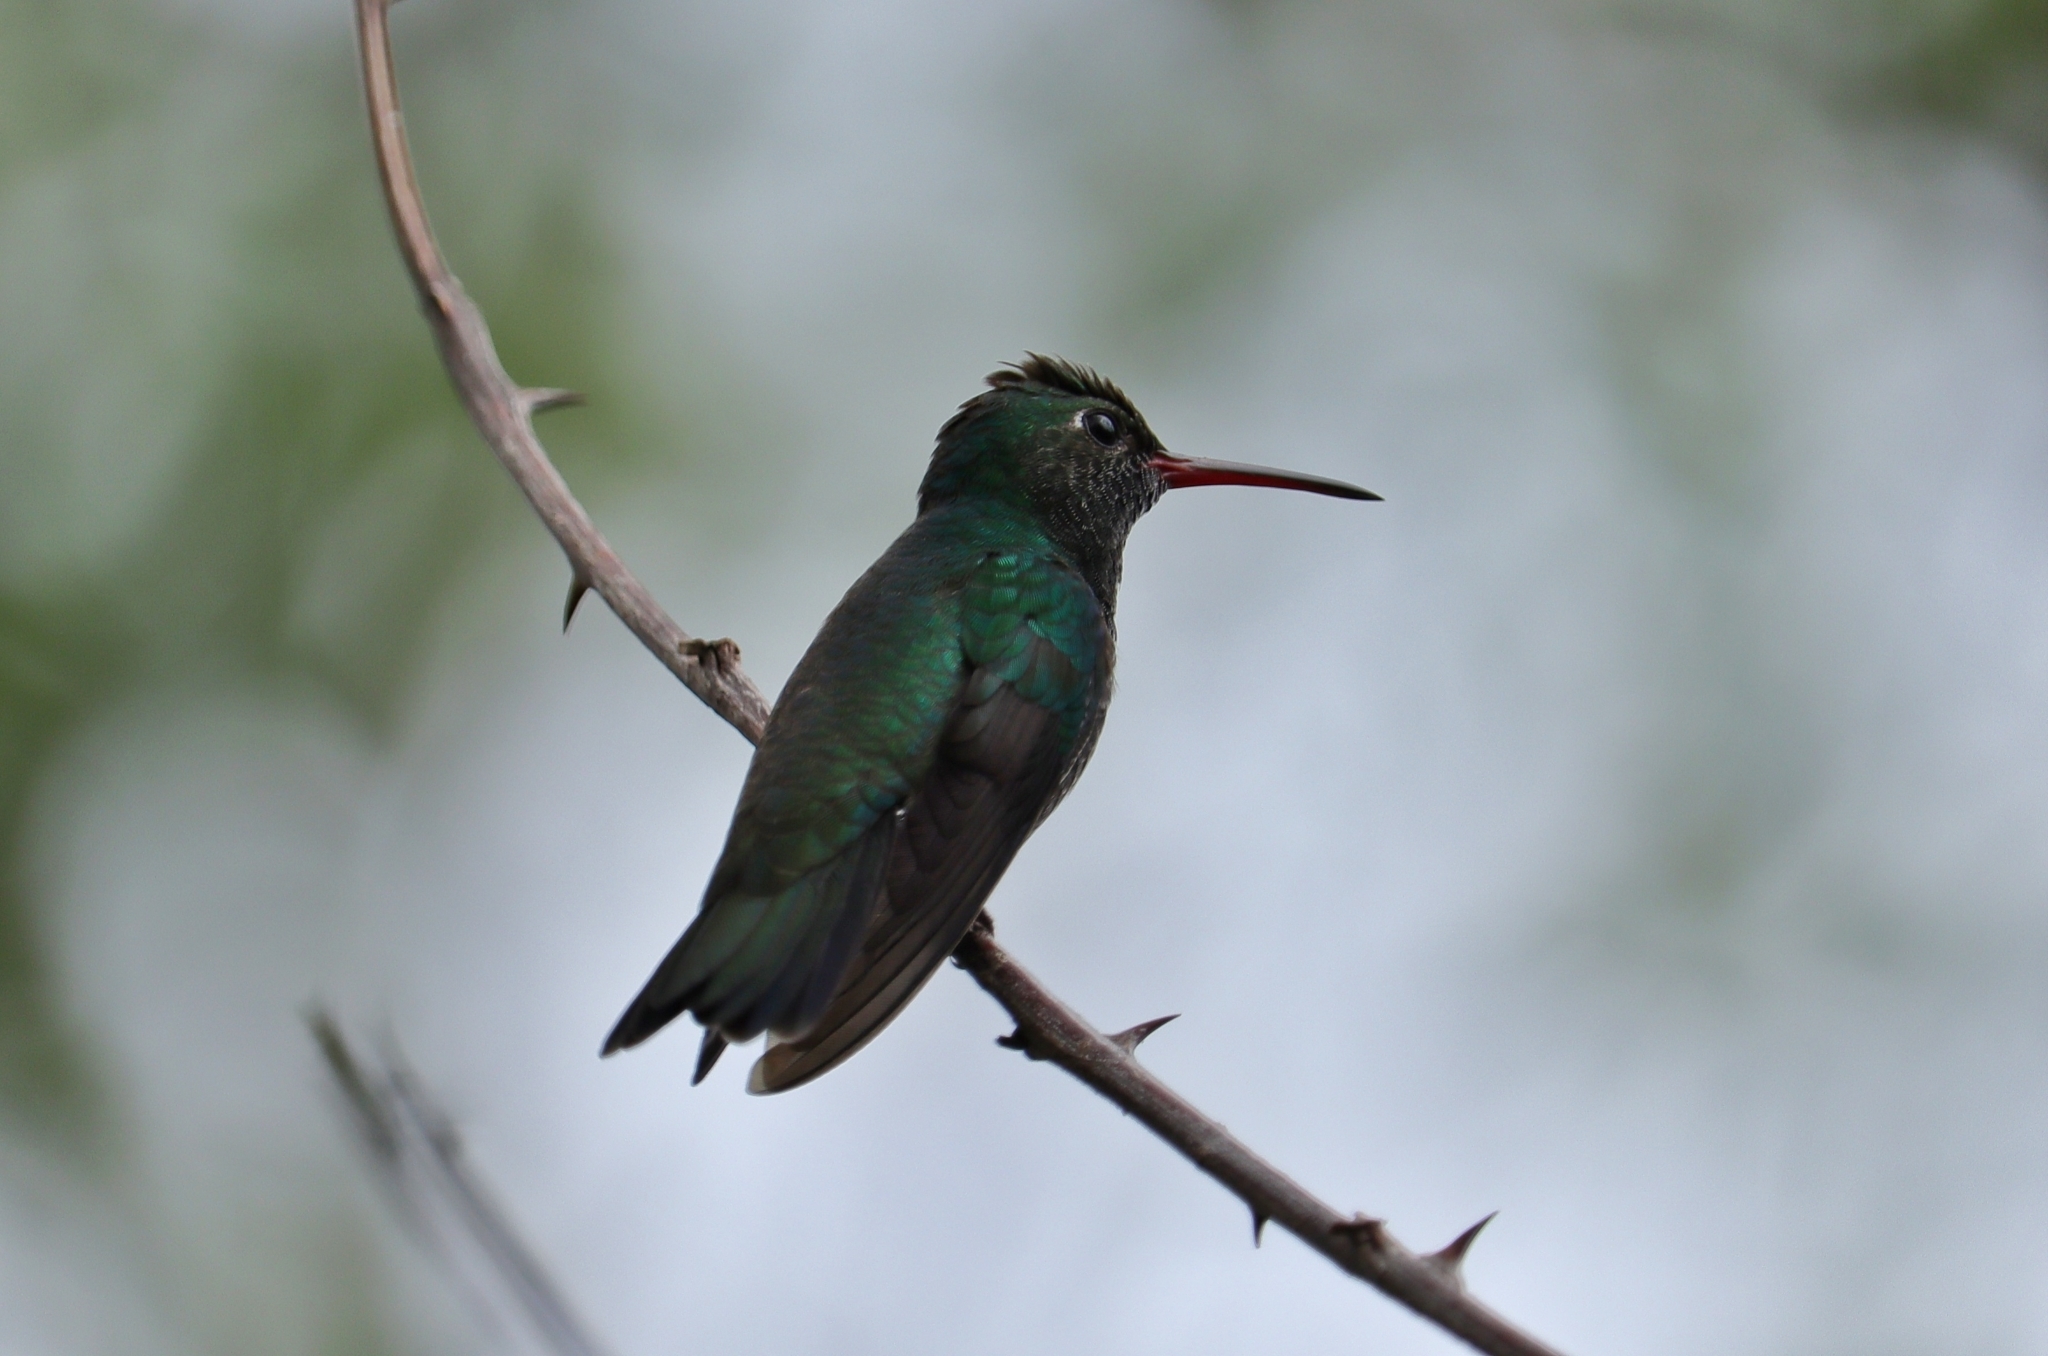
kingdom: Animalia
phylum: Chordata
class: Aves
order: Apodiformes
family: Trochilidae
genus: Chionomesa
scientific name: Chionomesa fimbriata
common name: Glittering-throated emerald
